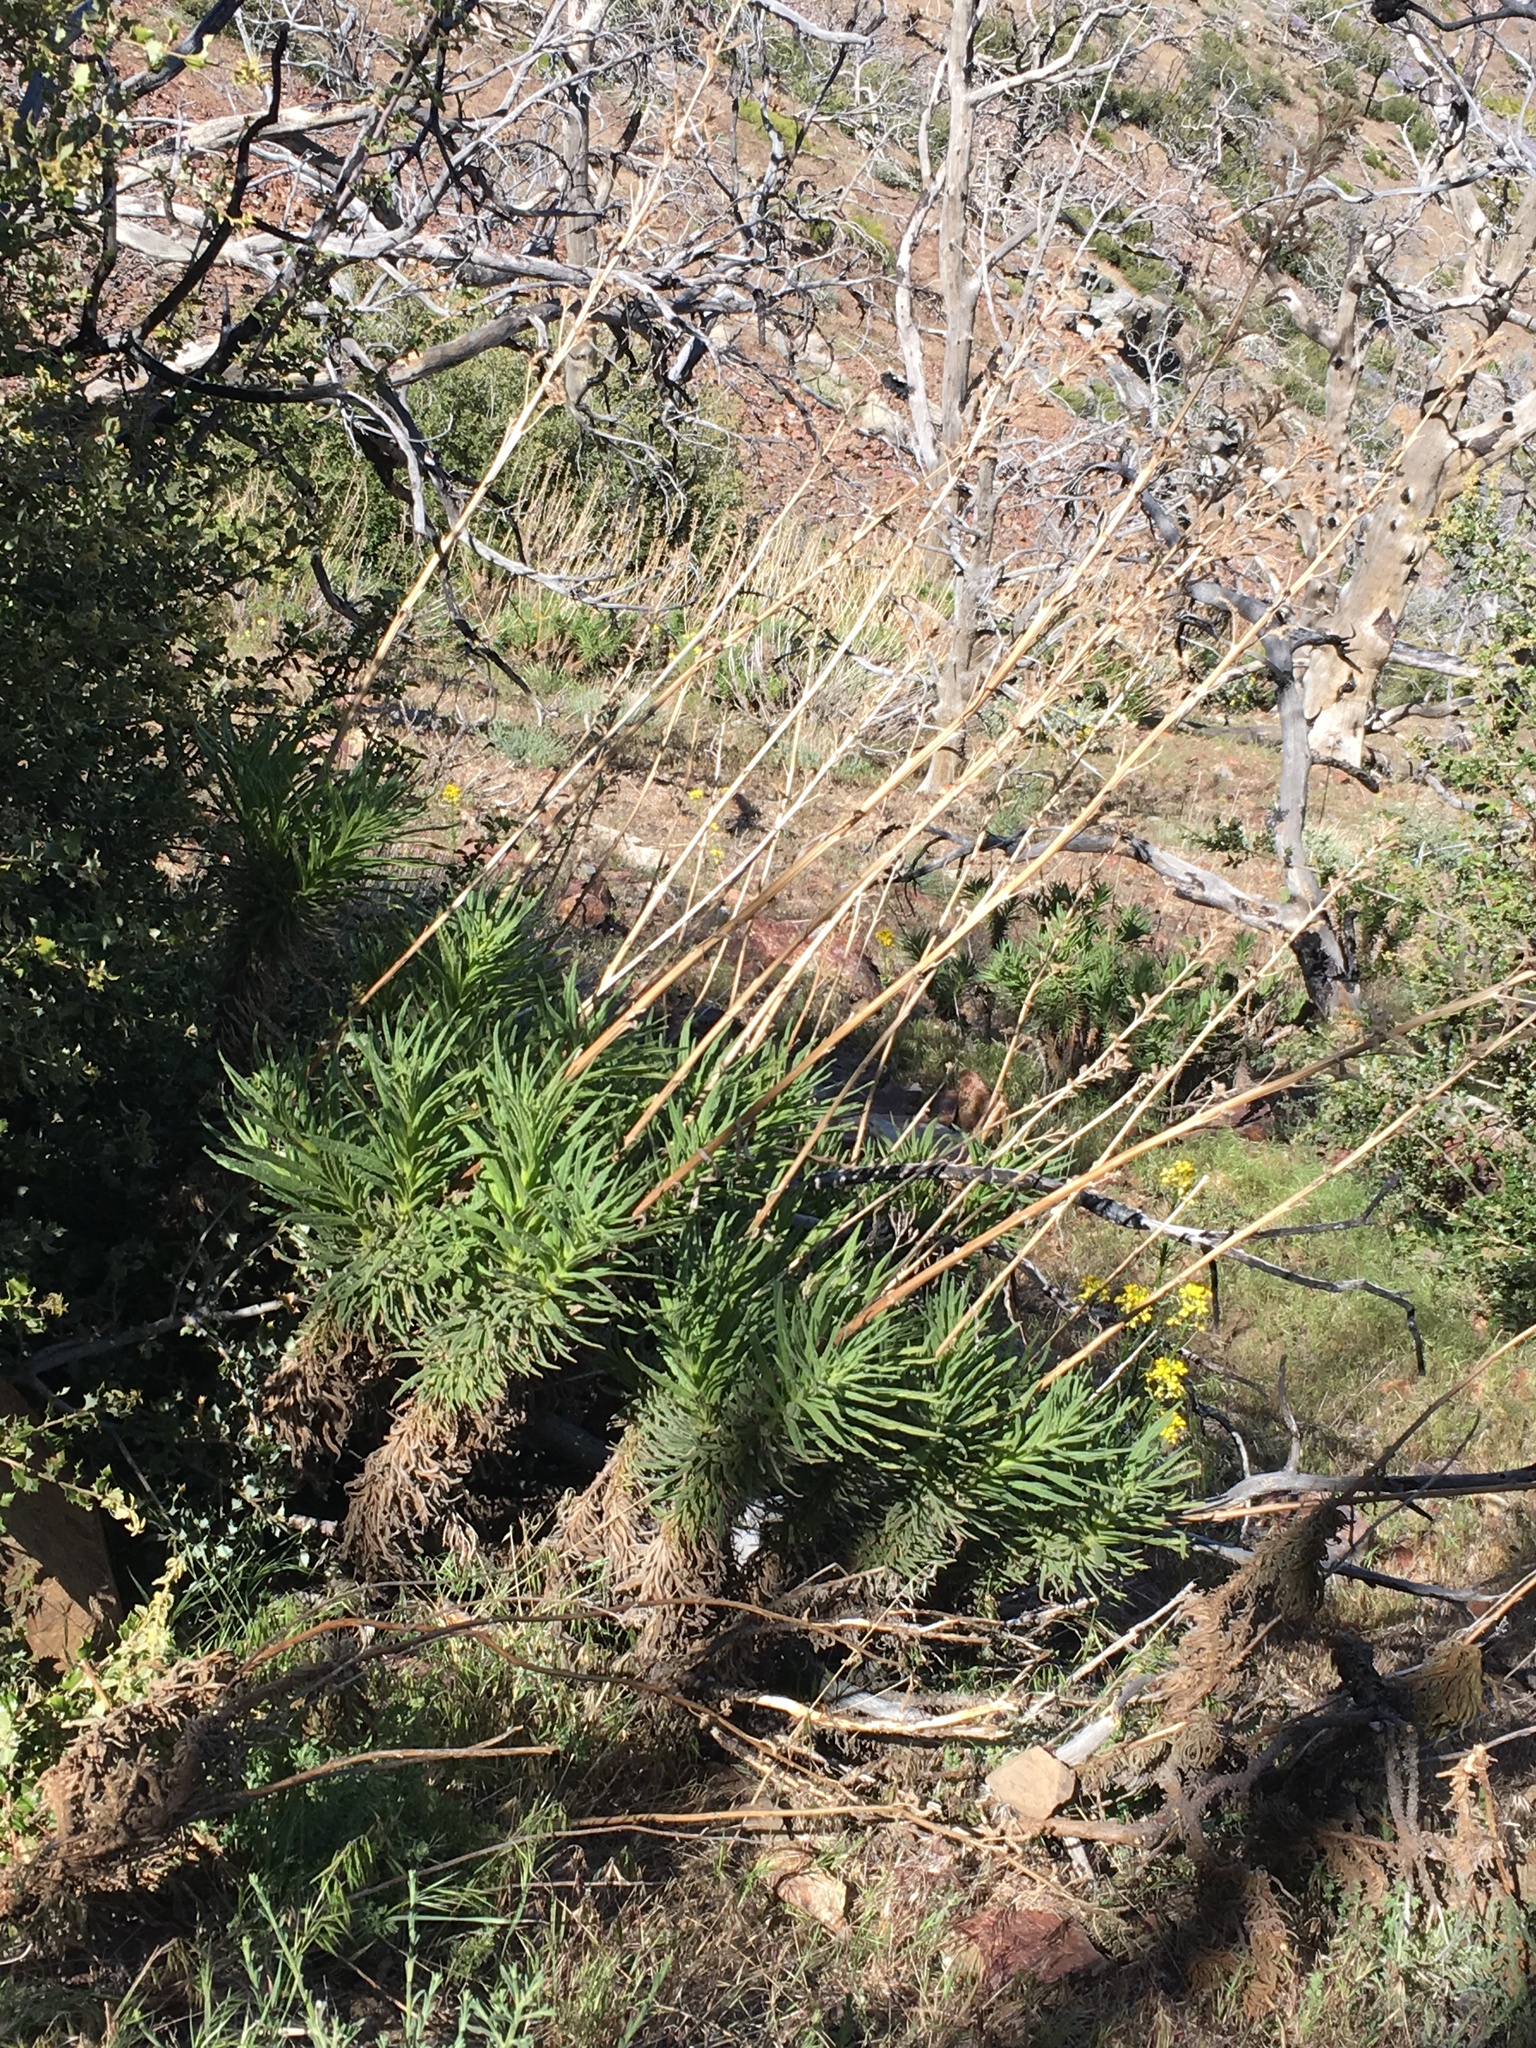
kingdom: Plantae
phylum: Tracheophyta
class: Magnoliopsida
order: Boraginales
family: Namaceae
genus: Turricula
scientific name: Turricula parryi
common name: Poodle-dog-bush
